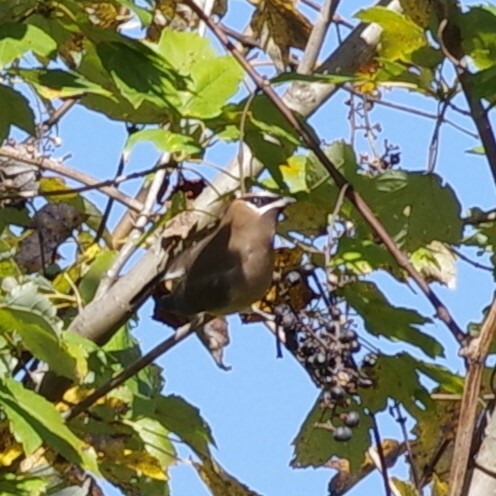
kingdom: Animalia
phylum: Chordata
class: Aves
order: Passeriformes
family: Bombycillidae
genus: Bombycilla
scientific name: Bombycilla cedrorum
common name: Cedar waxwing
